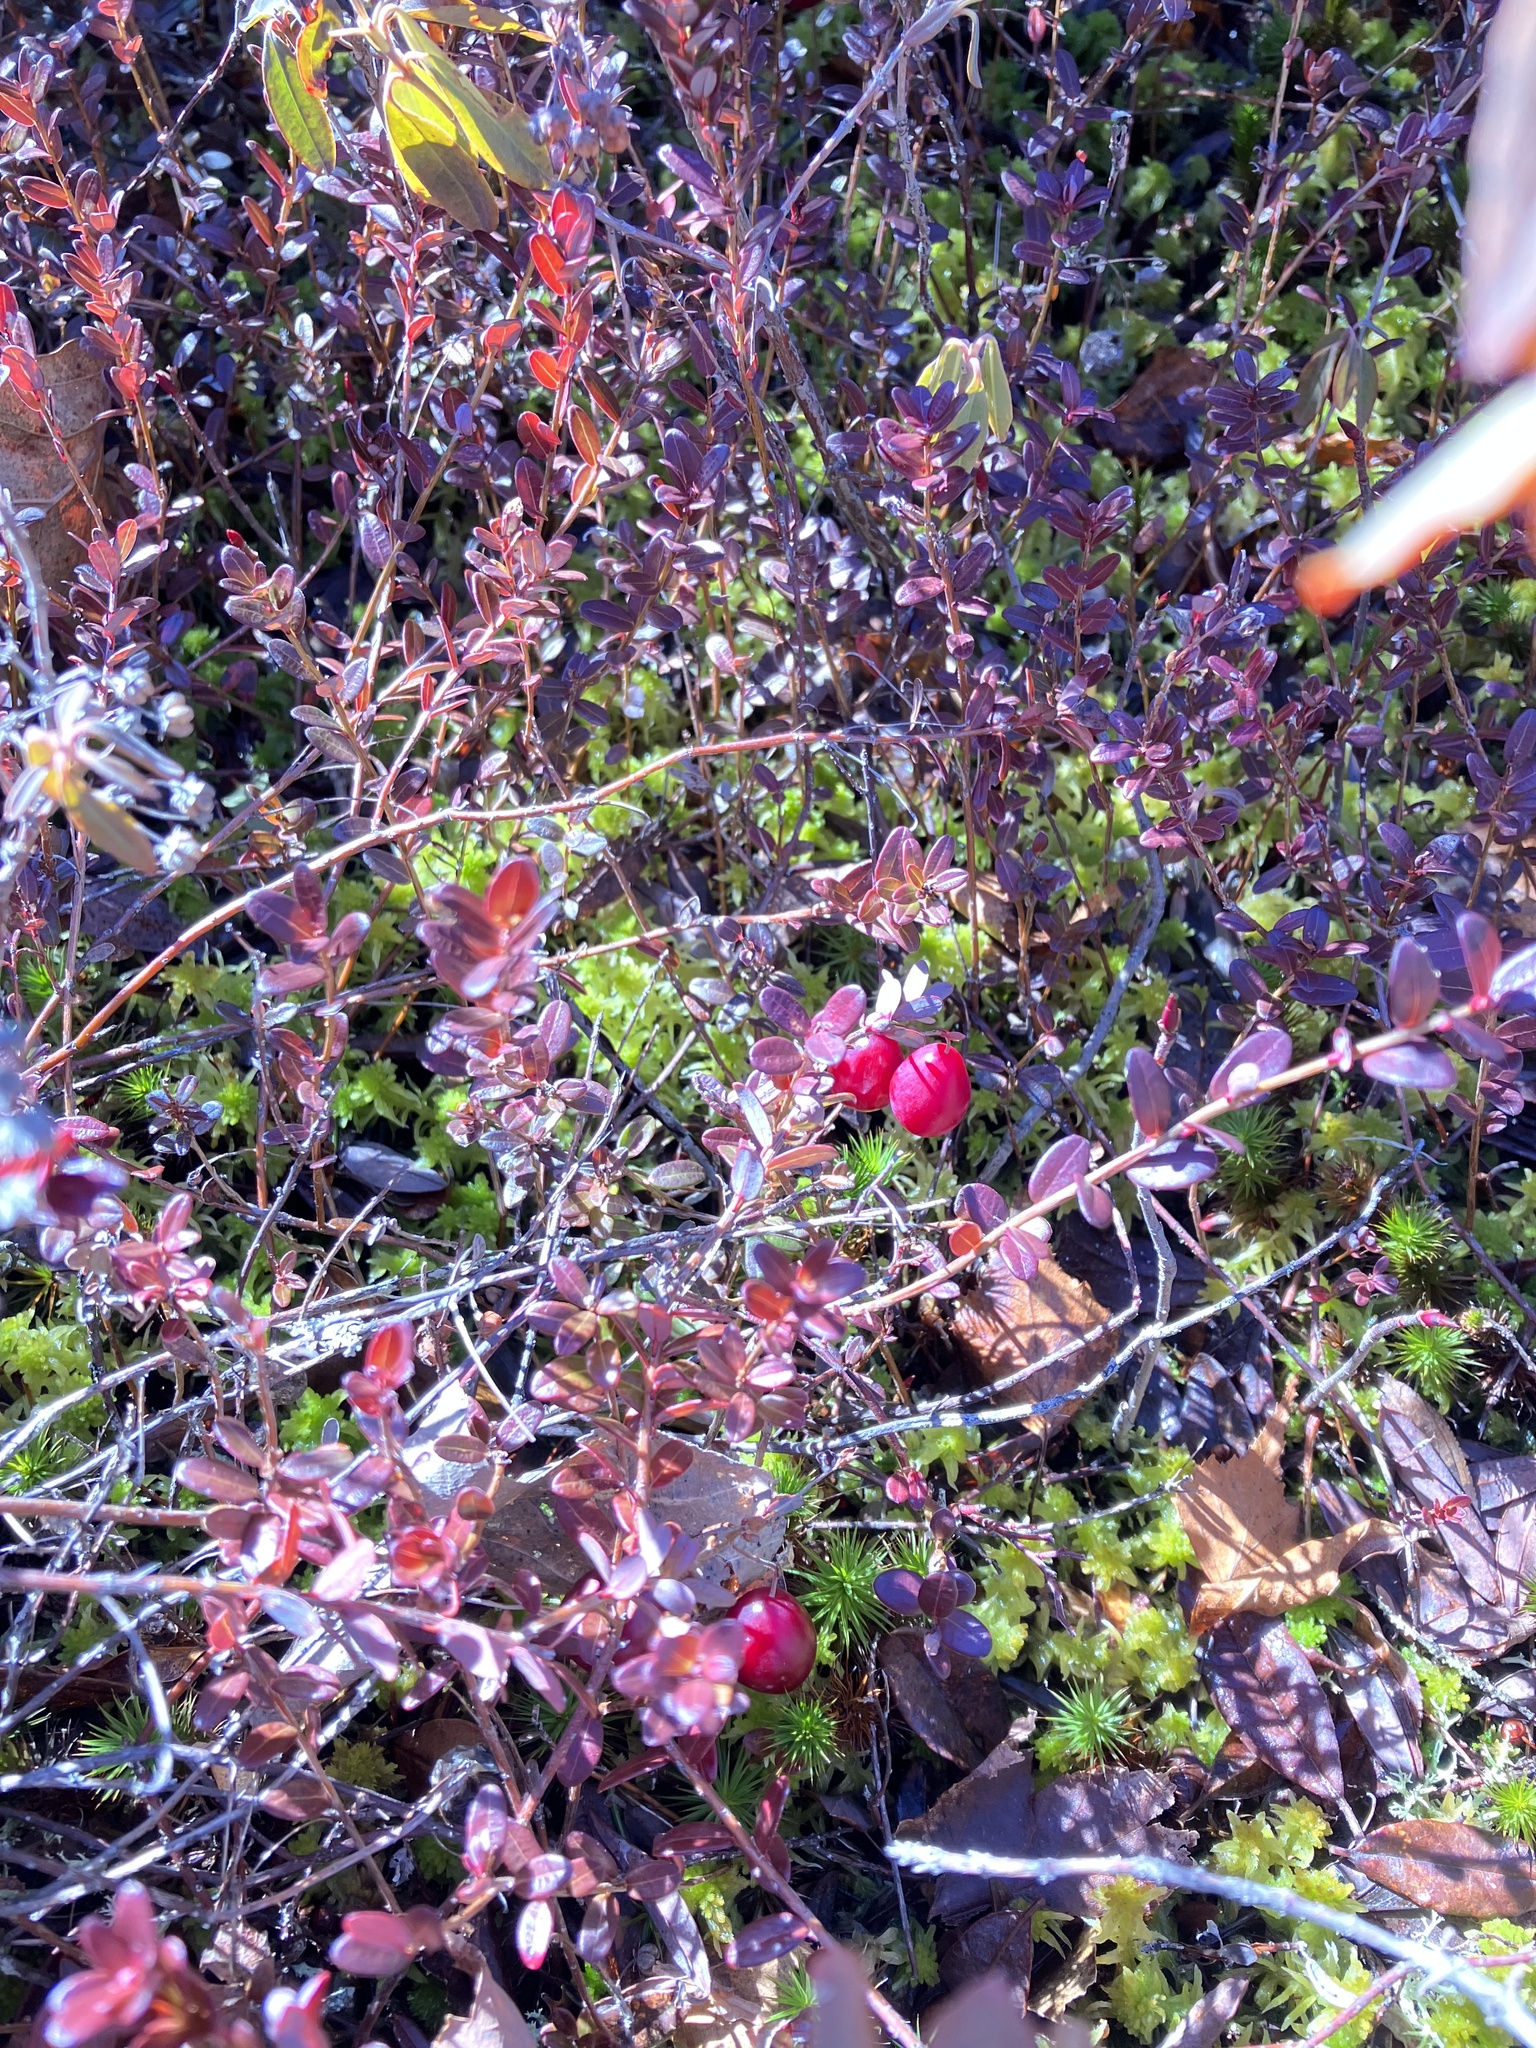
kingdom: Plantae
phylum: Tracheophyta
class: Magnoliopsida
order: Ericales
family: Ericaceae
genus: Vaccinium
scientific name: Vaccinium macrocarpon
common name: American cranberry
